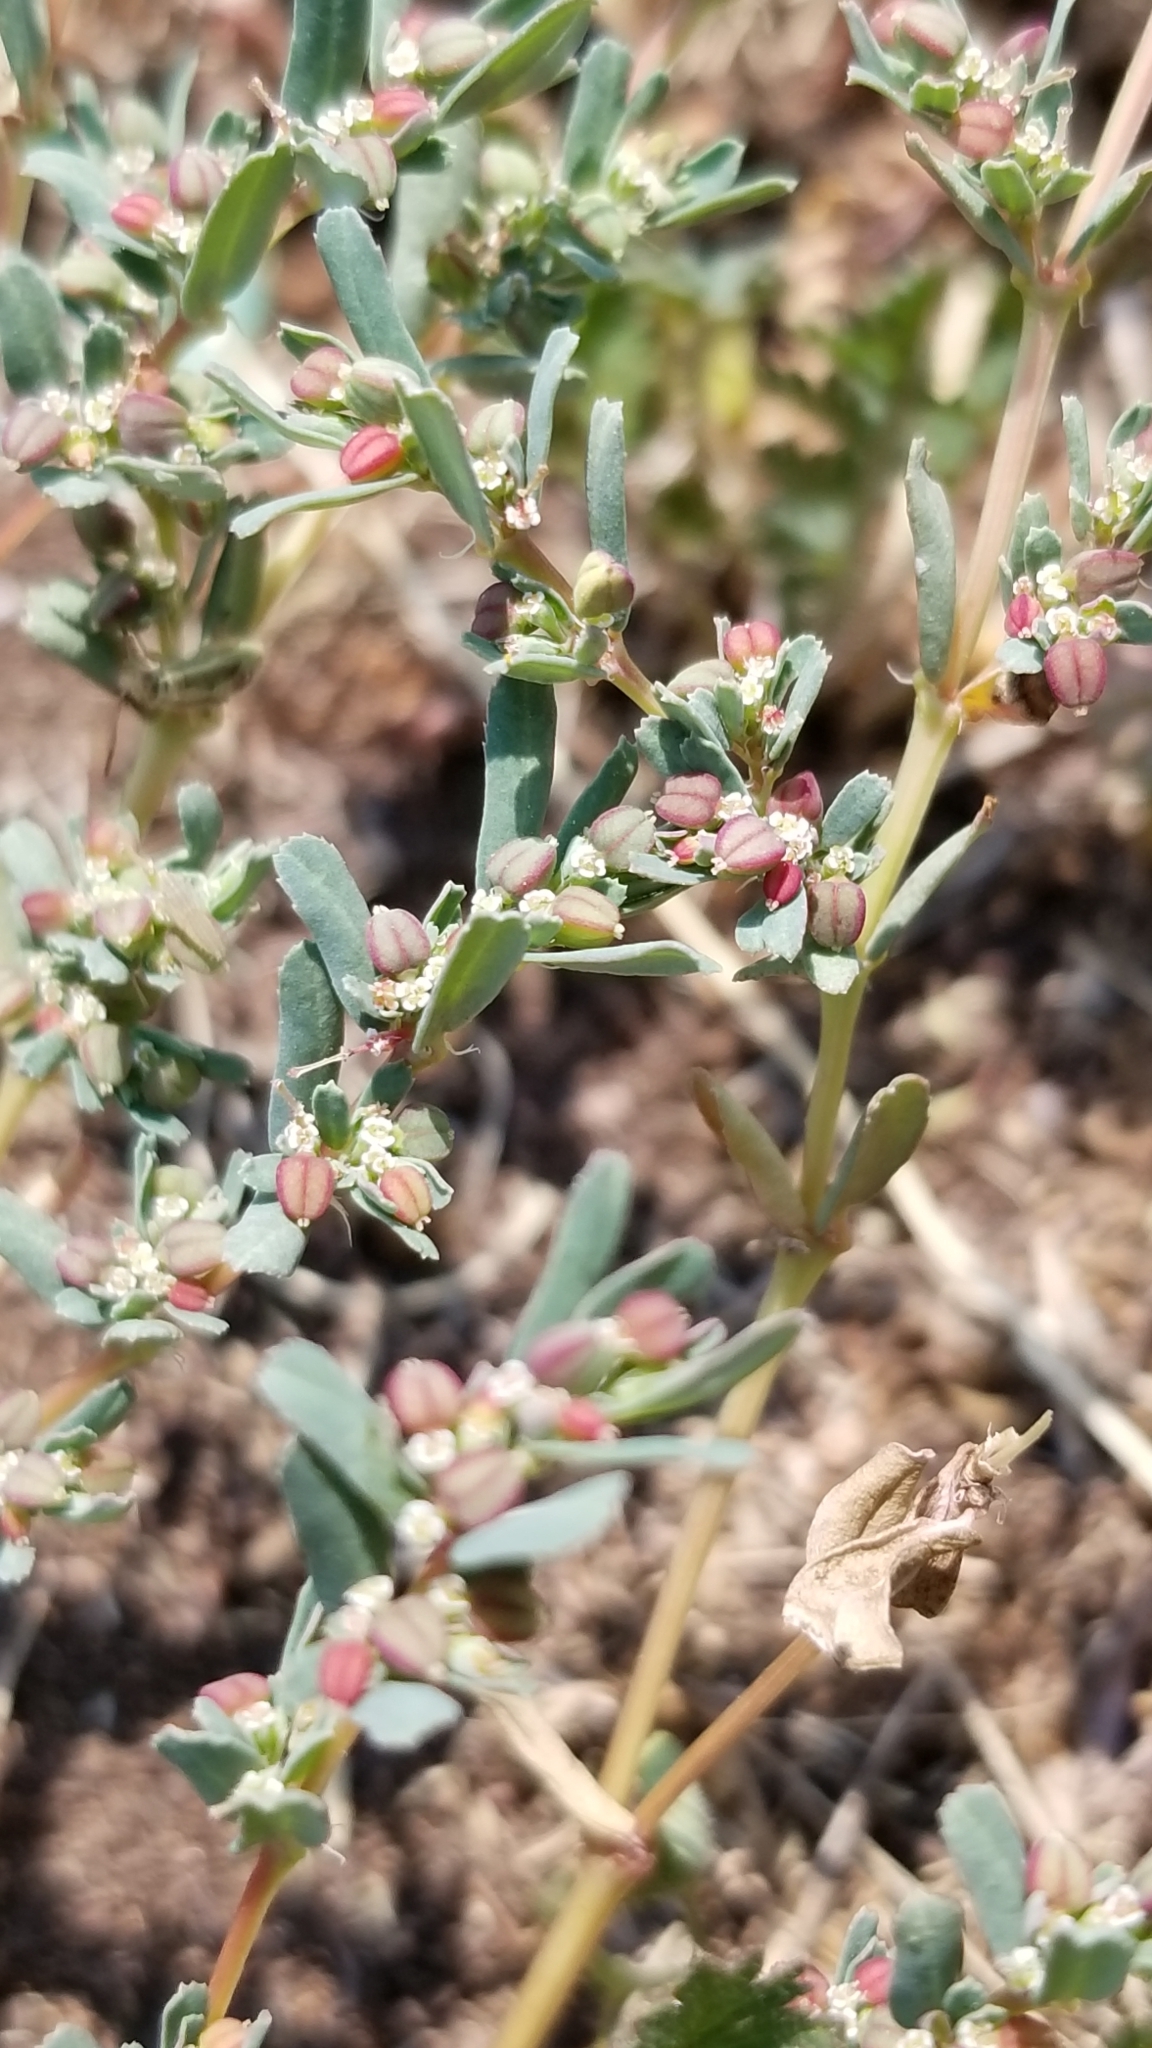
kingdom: Plantae
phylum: Tracheophyta
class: Magnoliopsida
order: Malpighiales
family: Euphorbiaceae
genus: Euphorbia
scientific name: Euphorbia serpillifolia
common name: Thyme-leaf spurge
